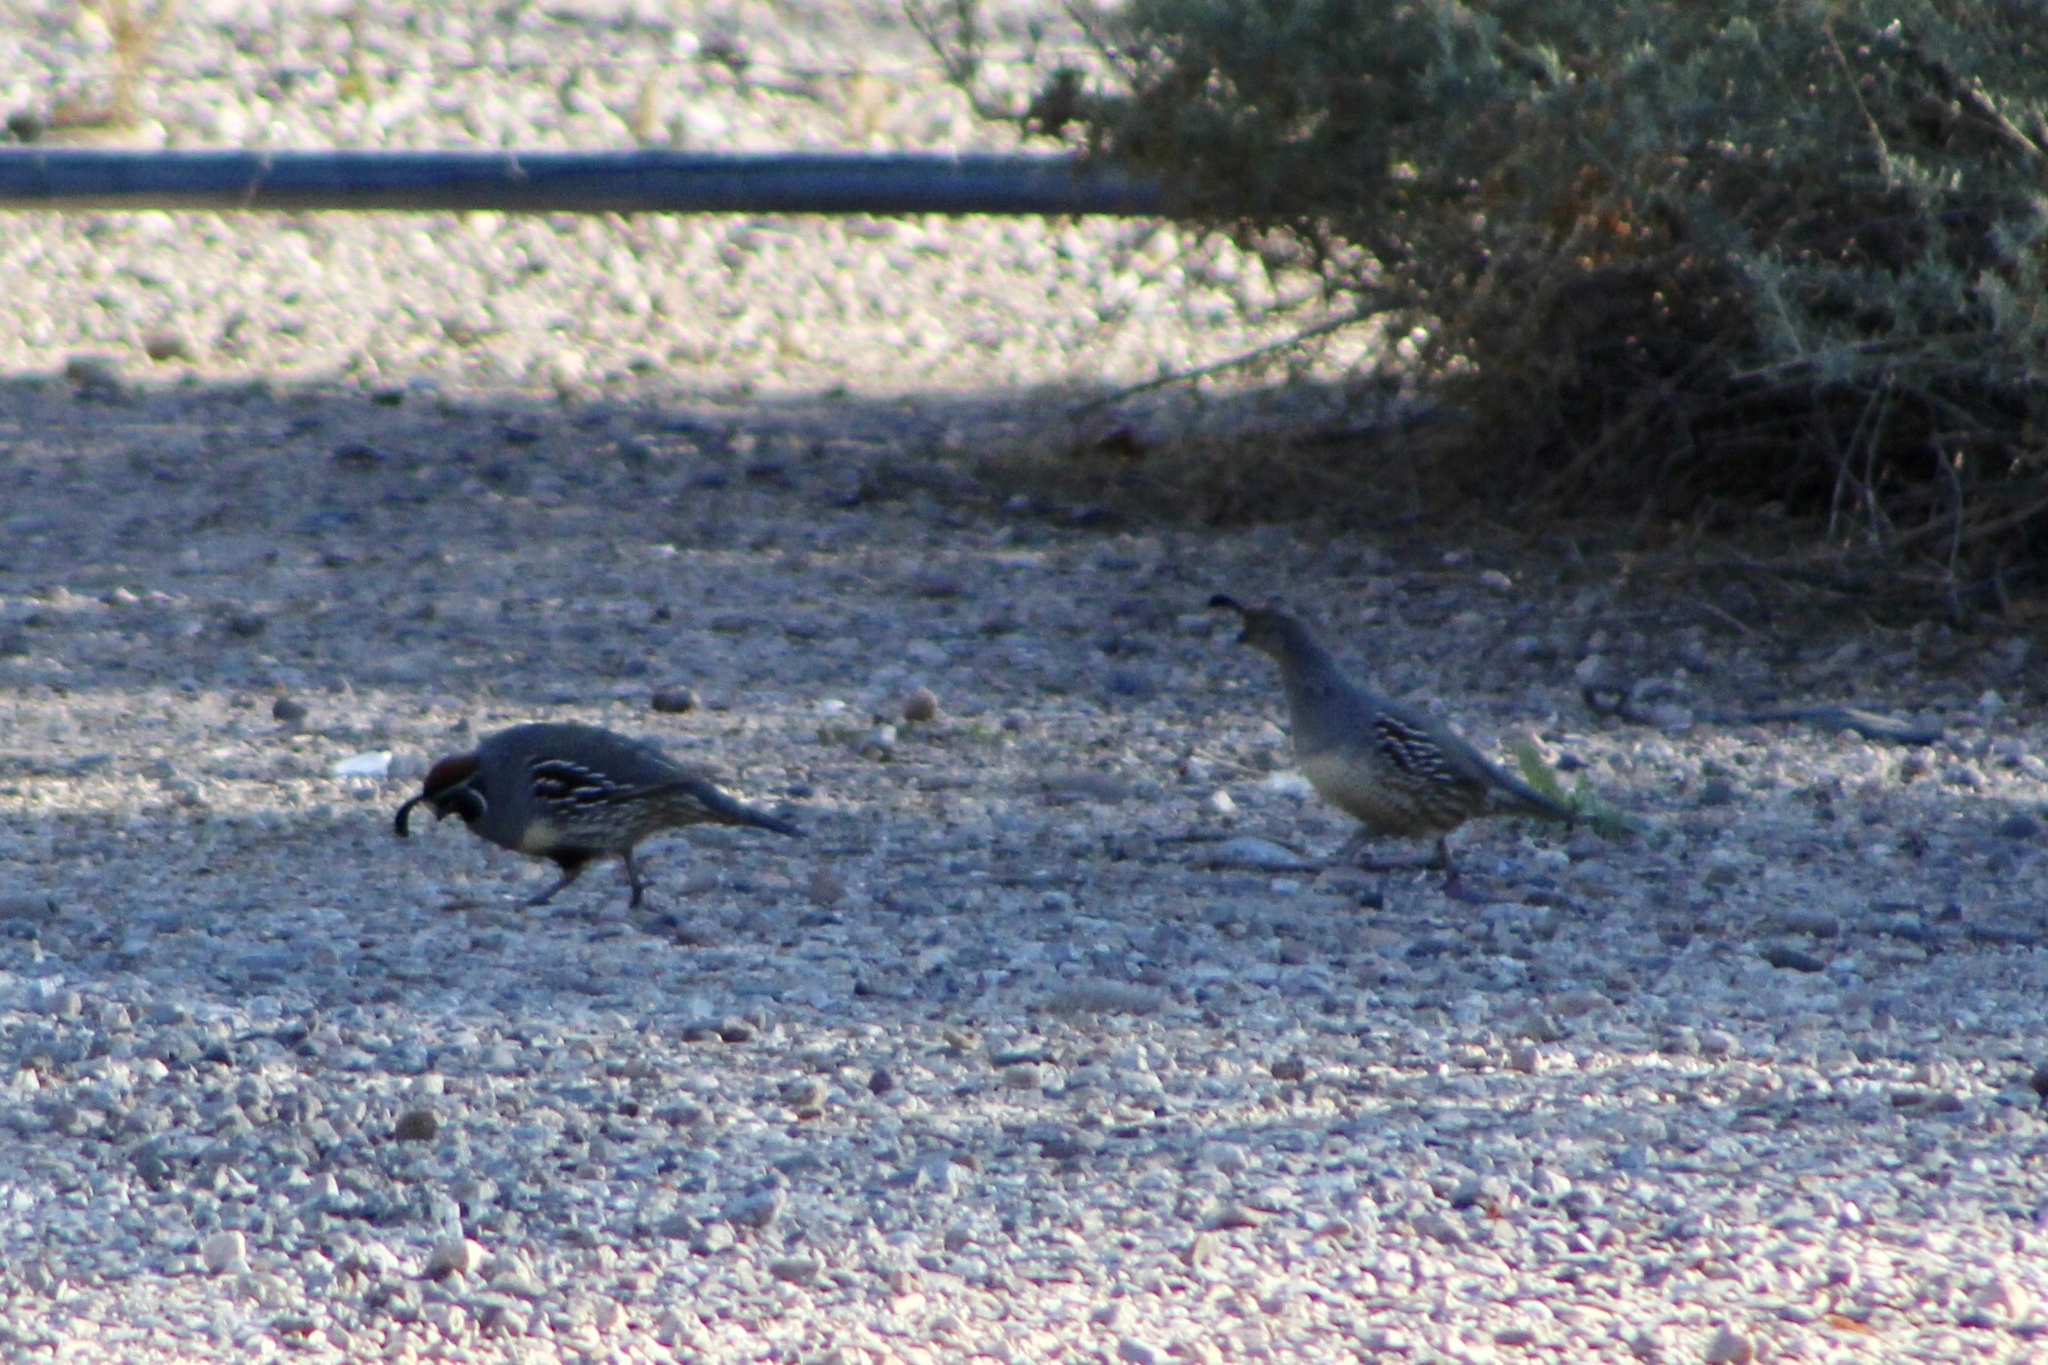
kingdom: Animalia
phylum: Chordata
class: Aves
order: Galliformes
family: Odontophoridae
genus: Callipepla
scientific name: Callipepla gambelii
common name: Gambel's quail
